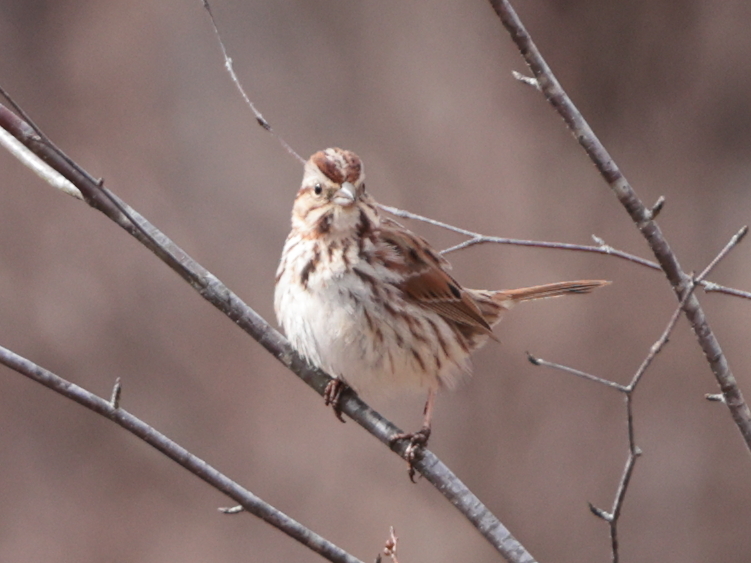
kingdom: Animalia
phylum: Chordata
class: Aves
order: Passeriformes
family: Passerellidae
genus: Melospiza
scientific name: Melospiza melodia
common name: Song sparrow
